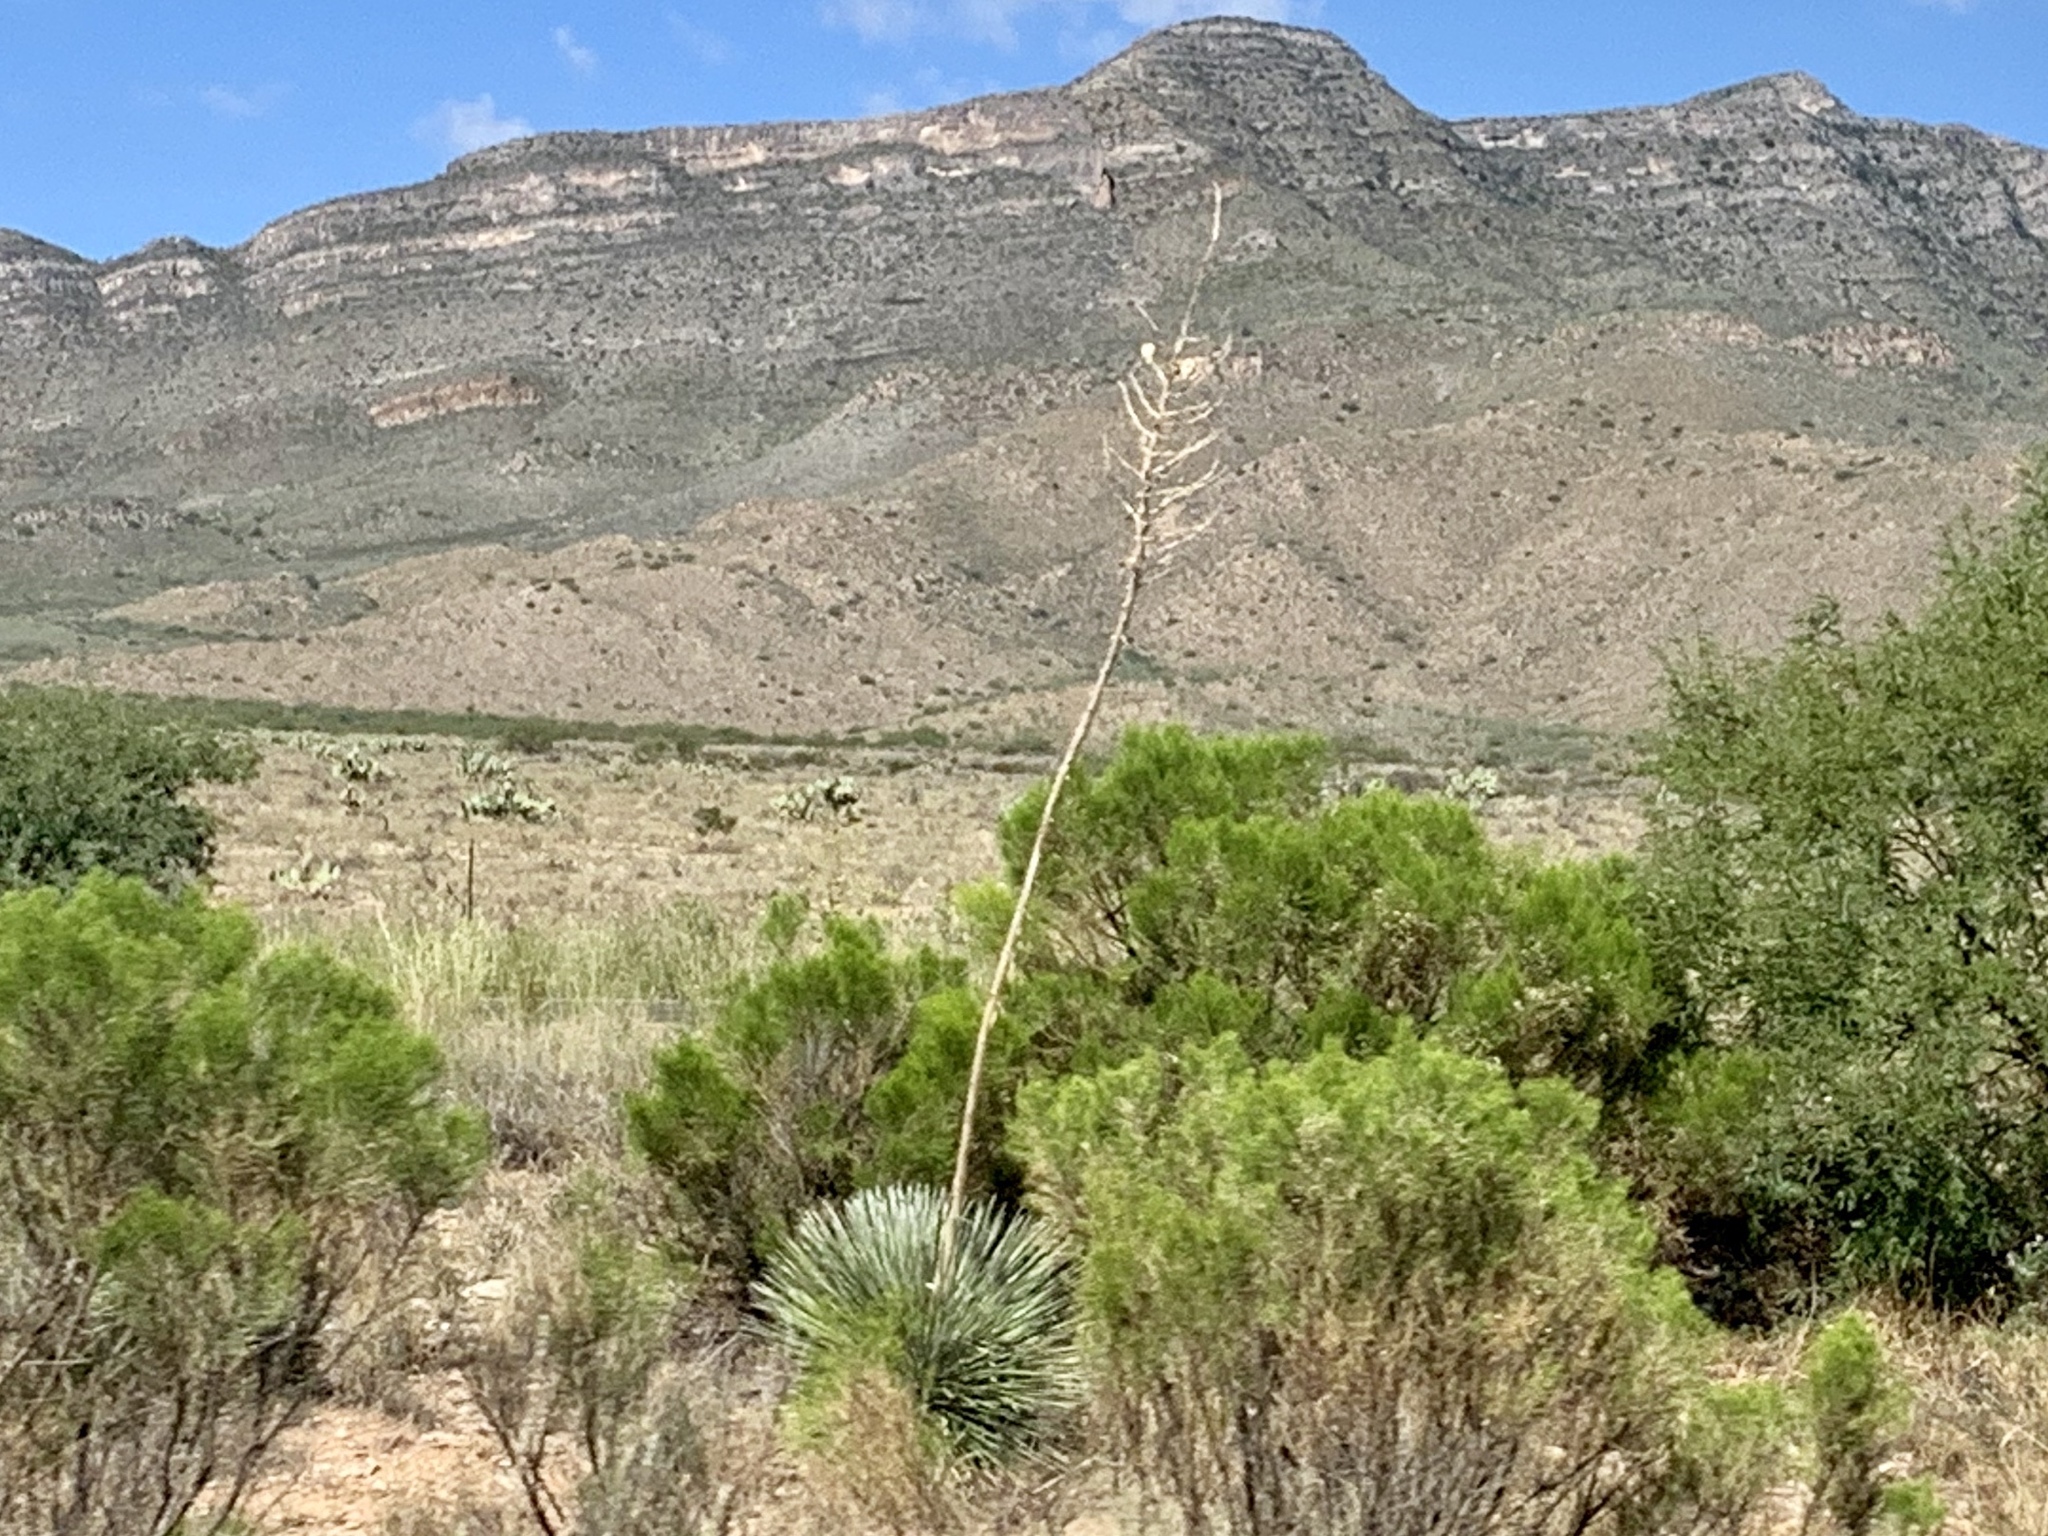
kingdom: Plantae
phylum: Tracheophyta
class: Liliopsida
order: Asparagales
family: Asparagaceae
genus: Yucca
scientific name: Yucca elata
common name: Palmella
